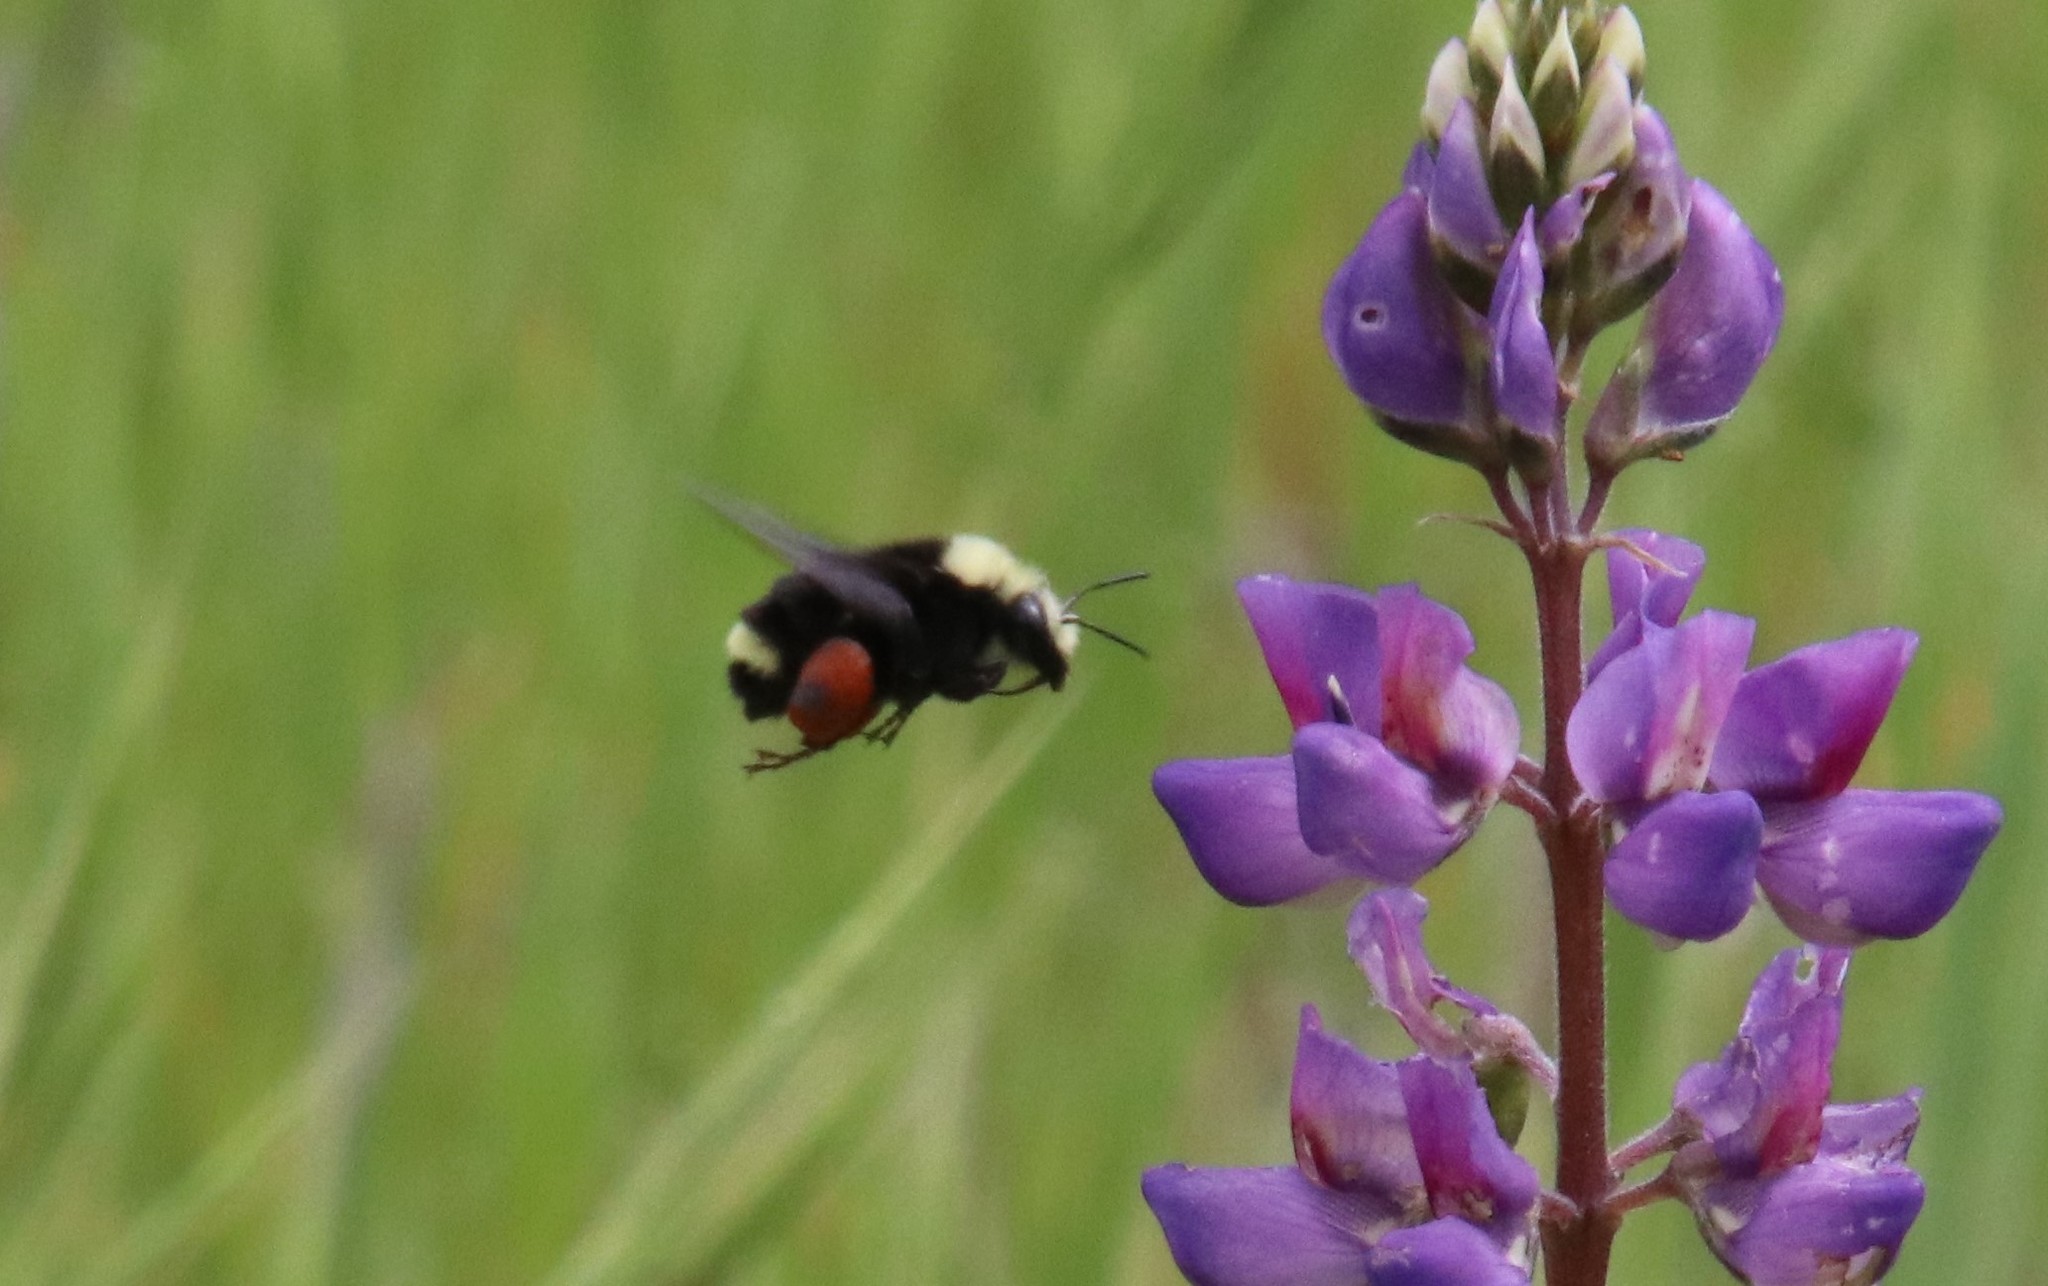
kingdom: Animalia
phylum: Arthropoda
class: Insecta
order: Hymenoptera
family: Apidae
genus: Bombus
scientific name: Bombus vosnesenskii
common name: Vosnesensky bumble bee
